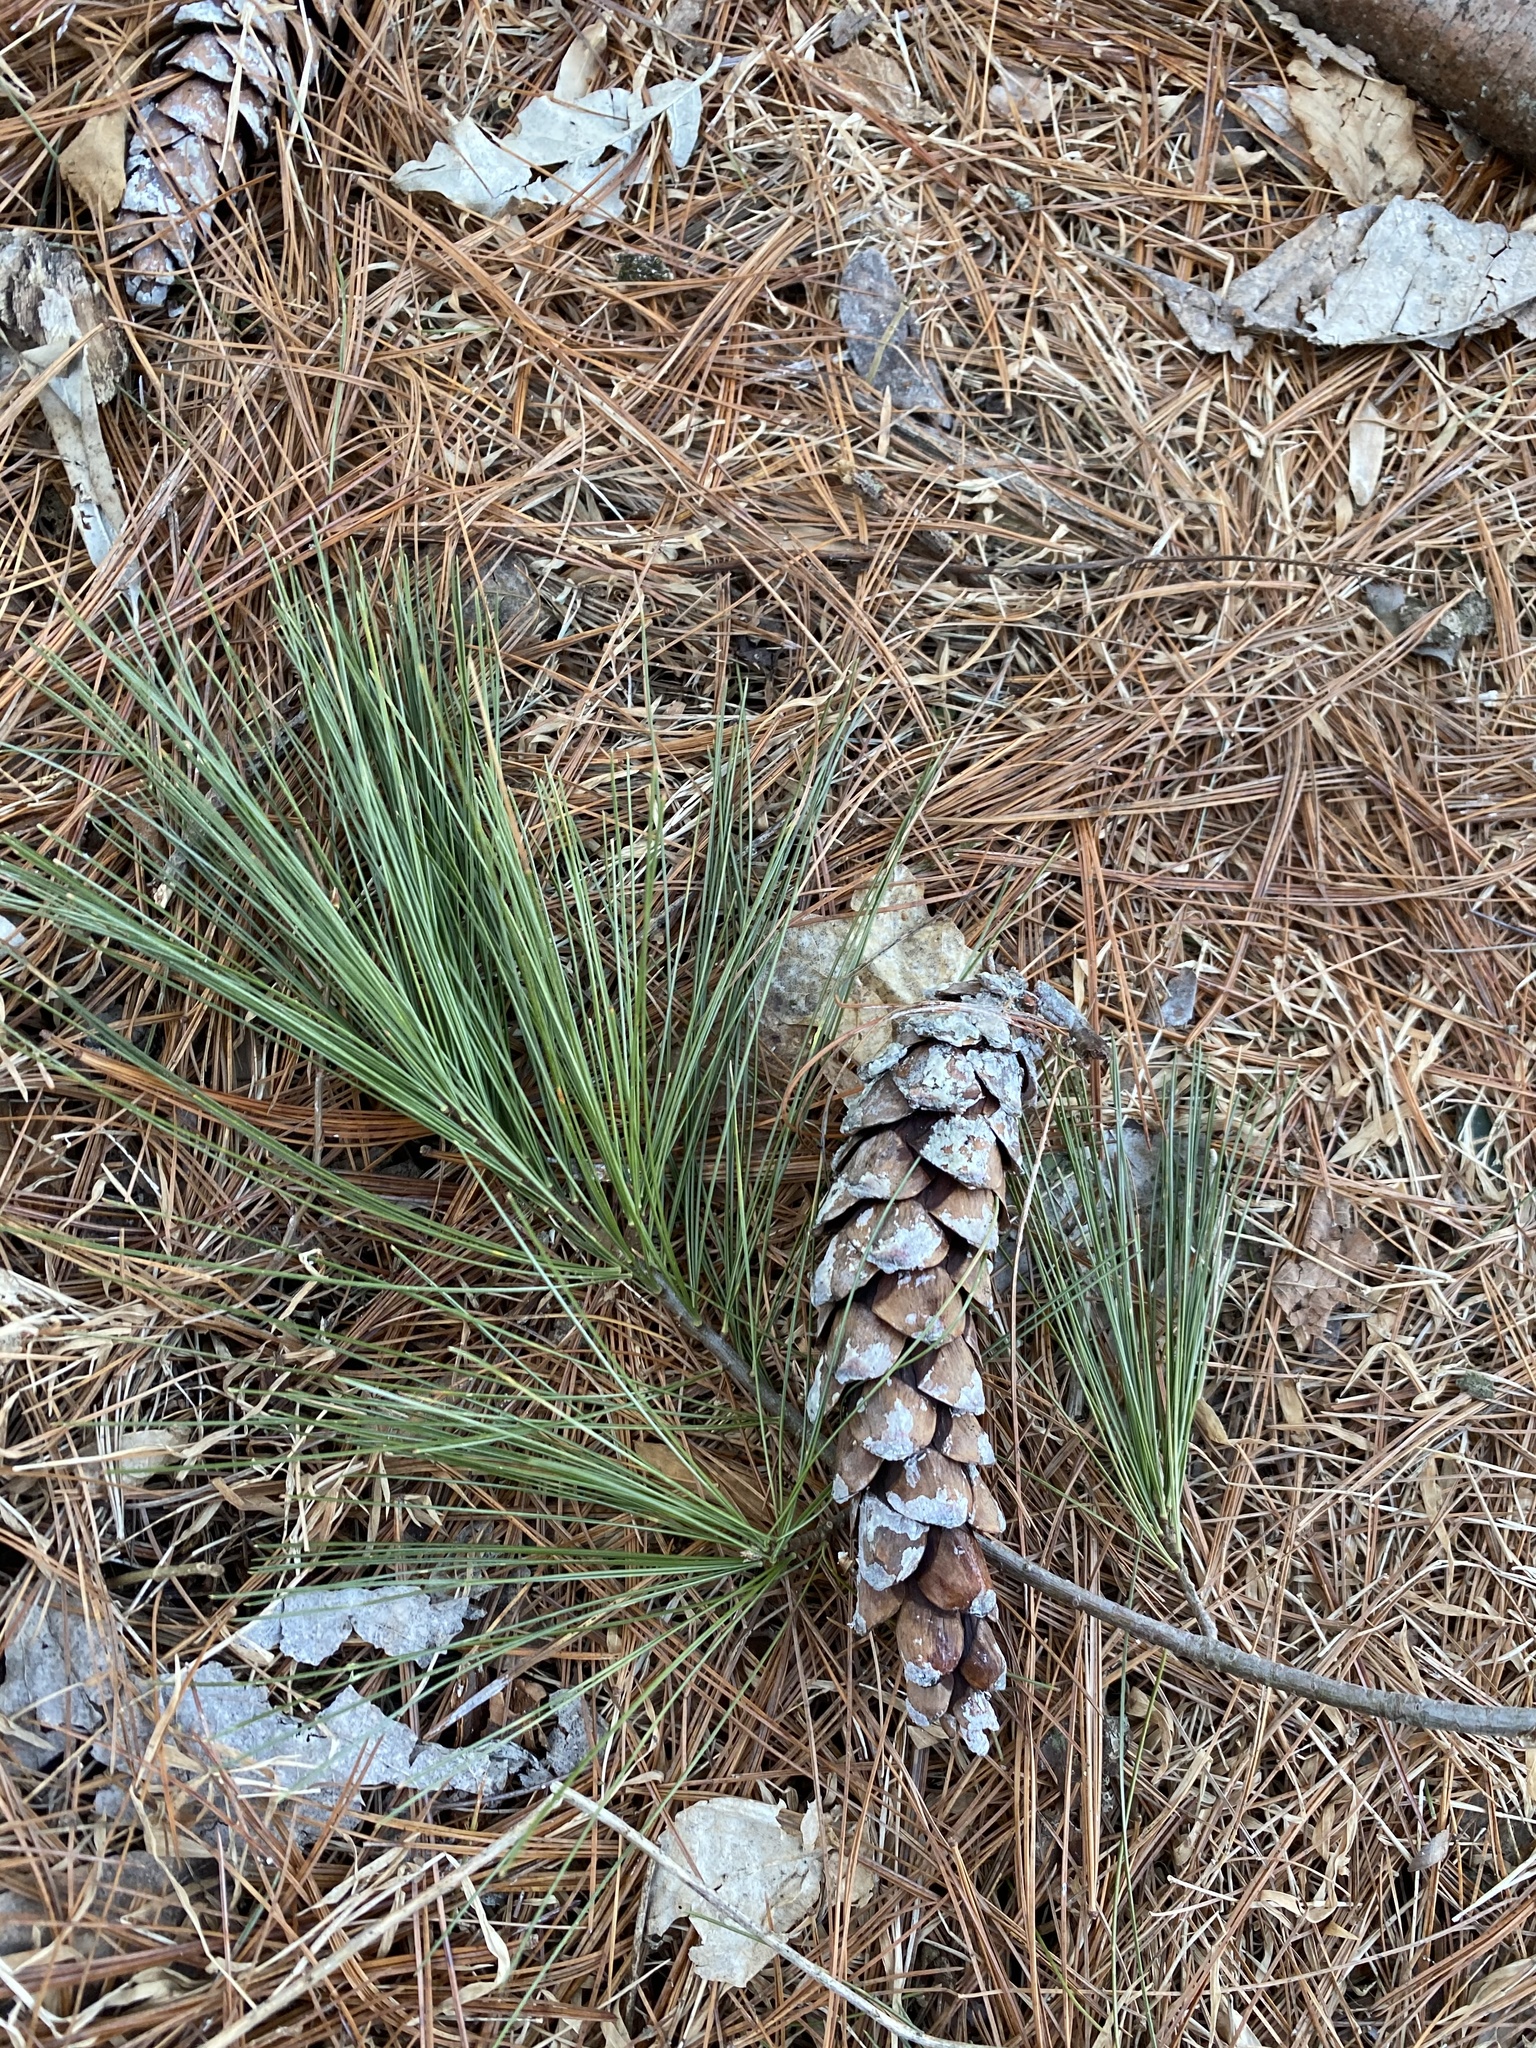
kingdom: Plantae
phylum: Tracheophyta
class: Pinopsida
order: Pinales
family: Pinaceae
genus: Pinus
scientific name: Pinus strobus
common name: Weymouth pine
